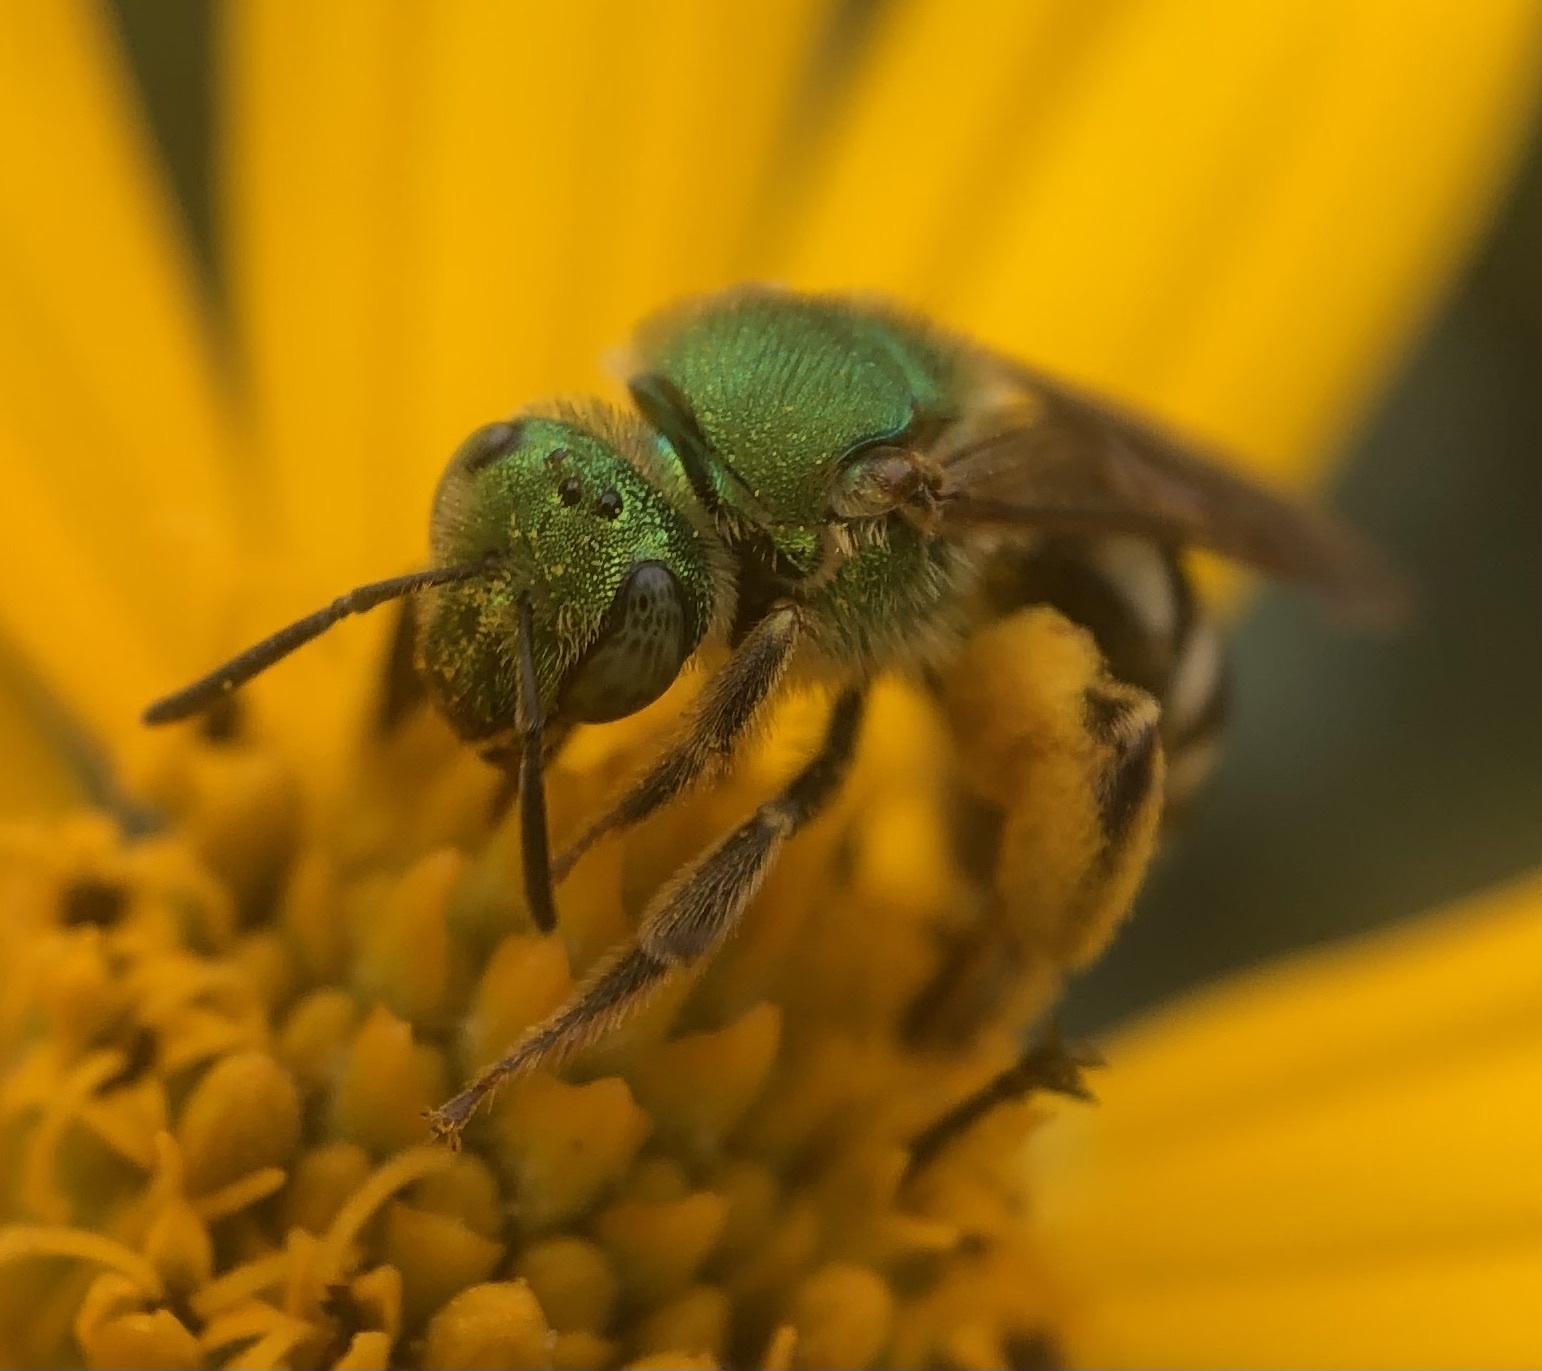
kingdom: Animalia
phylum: Arthropoda
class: Insecta
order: Hymenoptera
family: Halictidae
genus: Agapostemon
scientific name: Agapostemon virescens
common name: Bicolored striped sweat bee
